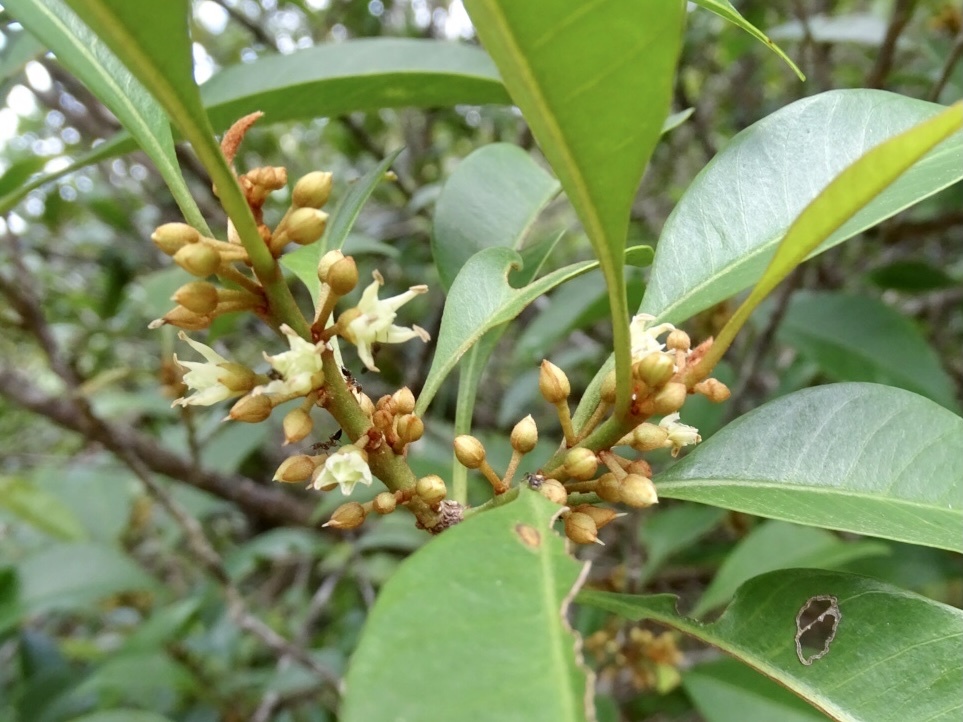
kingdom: Plantae
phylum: Tracheophyta
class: Magnoliopsida
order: Ericales
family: Sapotaceae
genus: Sideroxylon
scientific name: Sideroxylon wightianum
